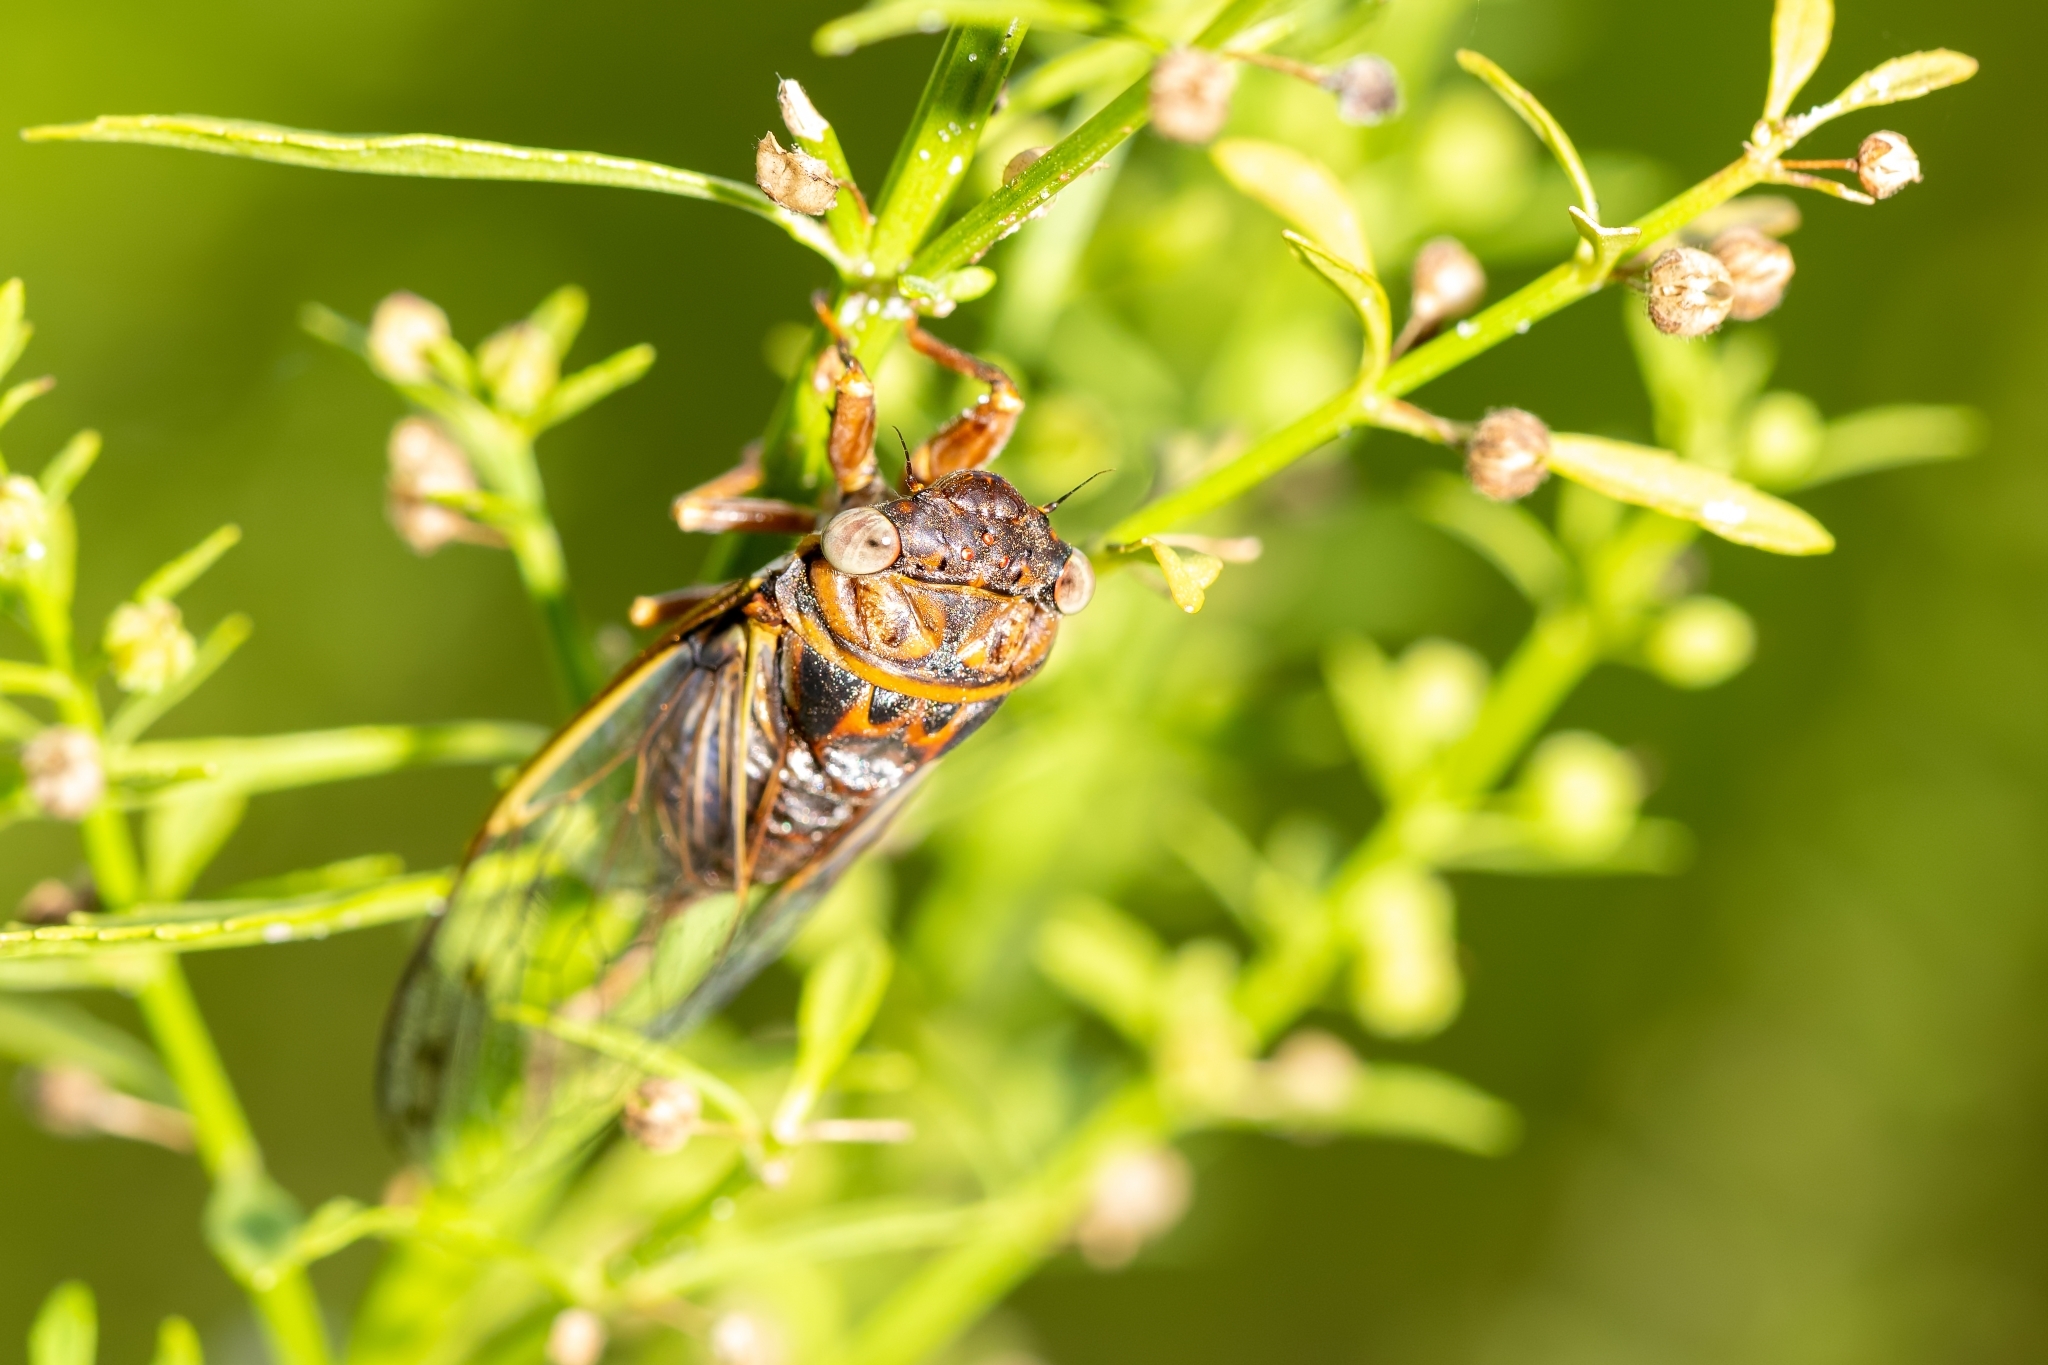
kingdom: Animalia
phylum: Arthropoda
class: Insecta
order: Hemiptera
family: Cicadidae
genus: Diceroprocta
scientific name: Diceroprocta olympusa
